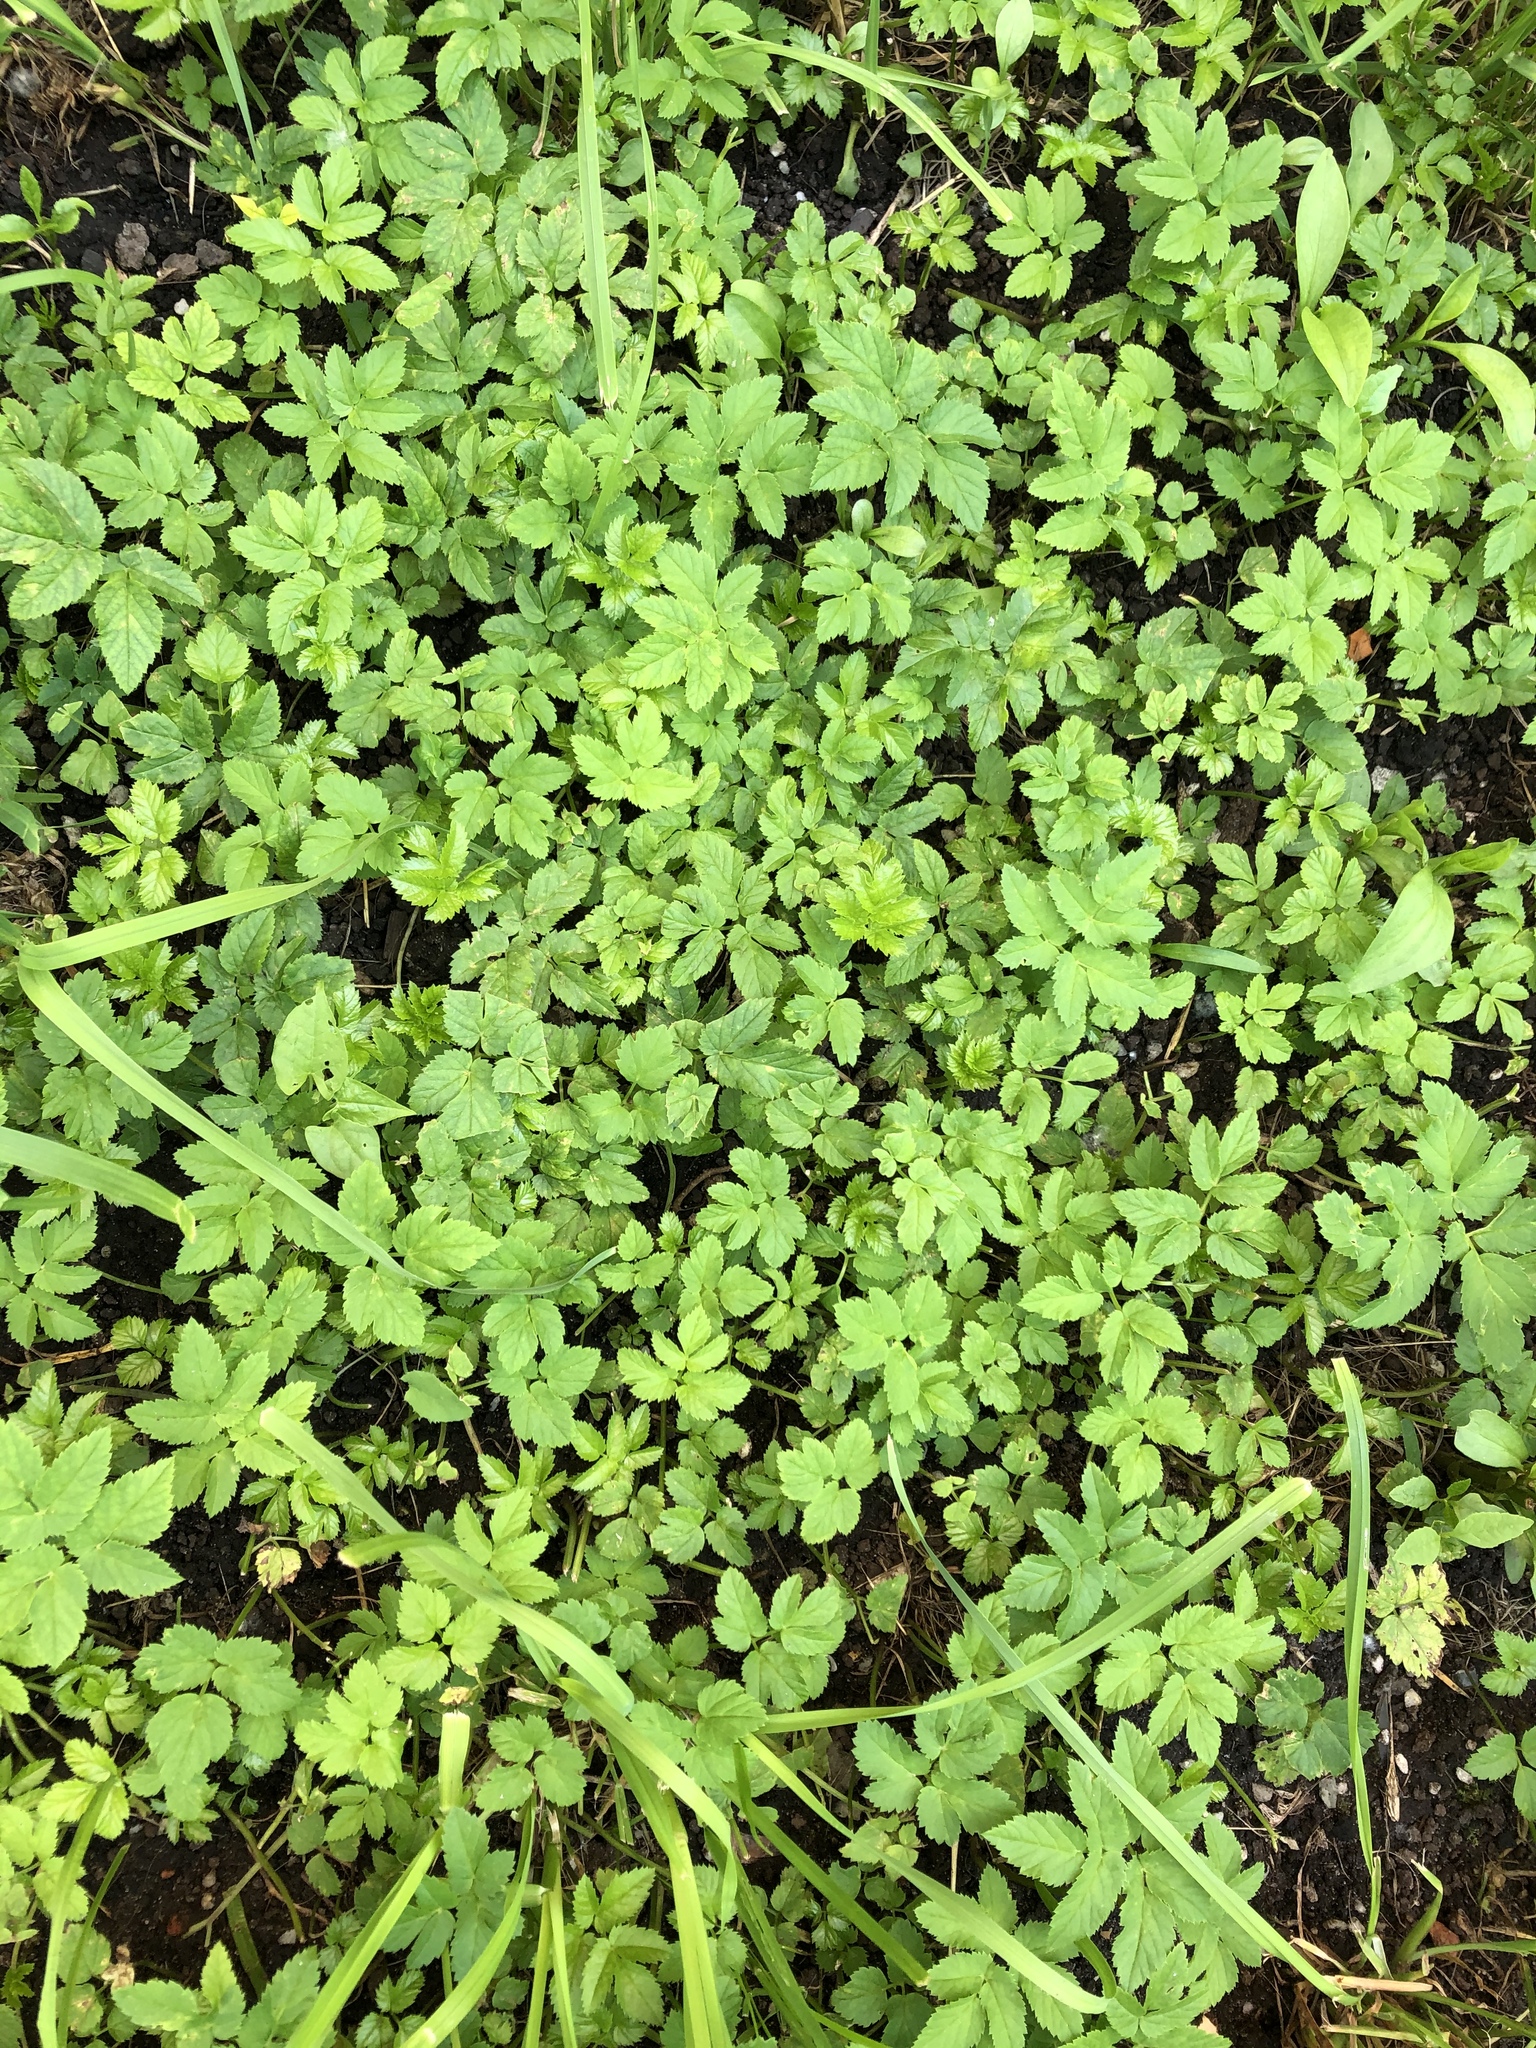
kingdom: Plantae
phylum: Tracheophyta
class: Magnoliopsida
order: Apiales
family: Apiaceae
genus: Aegopodium
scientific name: Aegopodium podagraria
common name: Ground-elder
